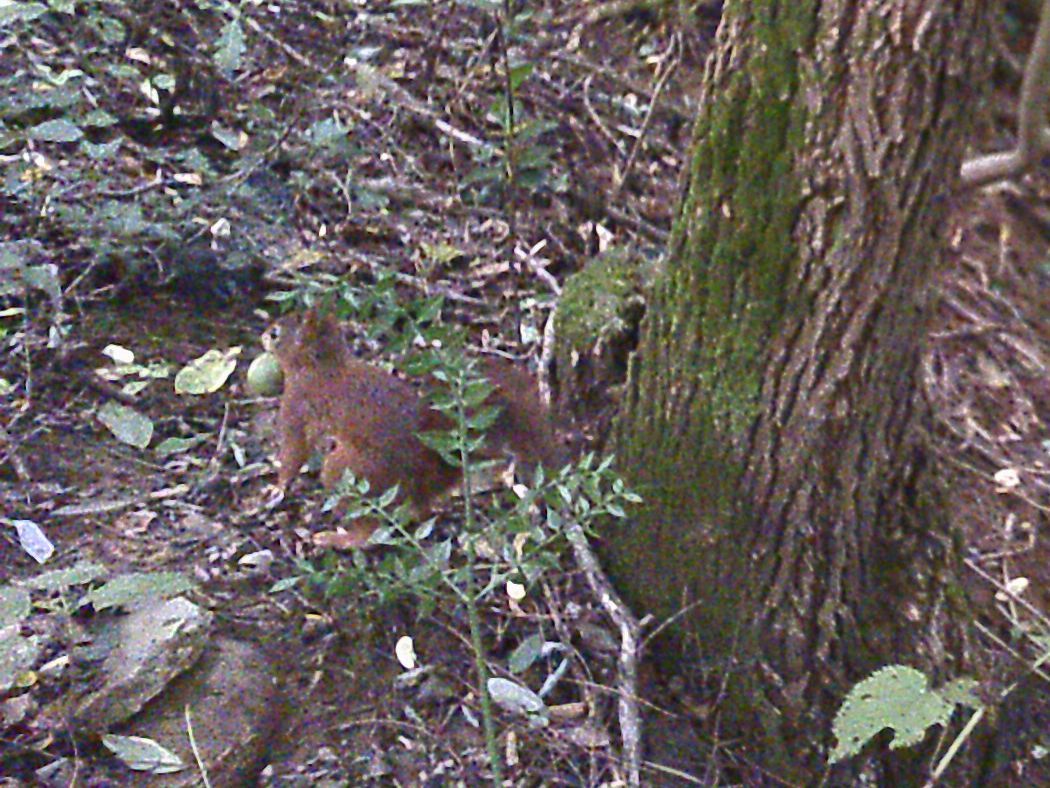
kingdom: Animalia
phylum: Chordata
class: Mammalia
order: Rodentia
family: Sciuridae
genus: Sciurus
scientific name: Sciurus vulgaris
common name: Eurasian red squirrel
